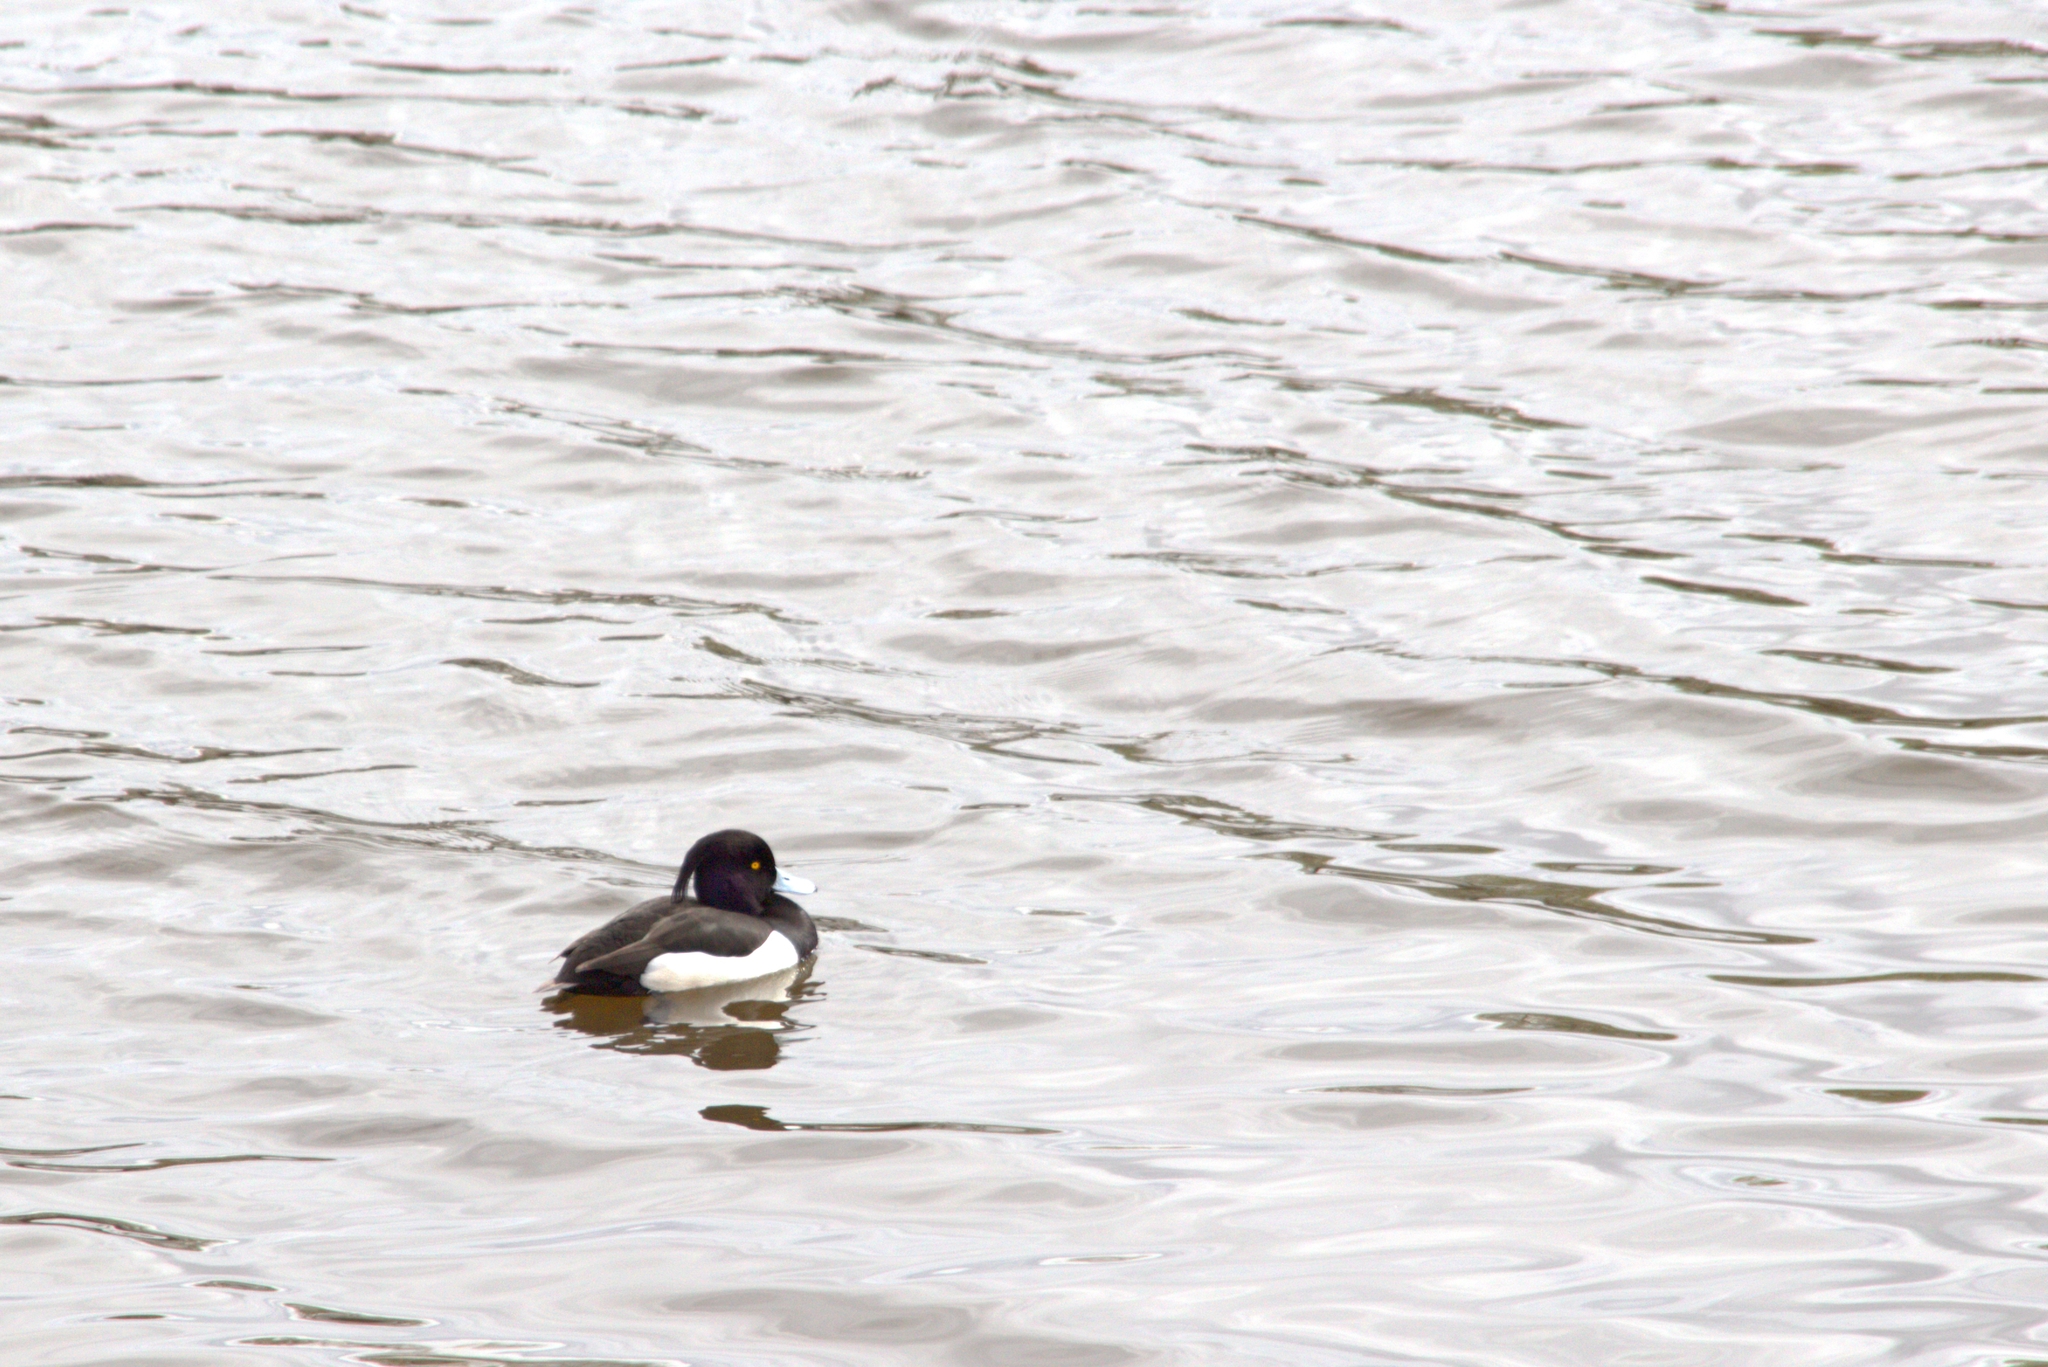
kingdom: Animalia
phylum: Chordata
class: Aves
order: Anseriformes
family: Anatidae
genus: Aythya
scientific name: Aythya fuligula
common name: Tufted duck
